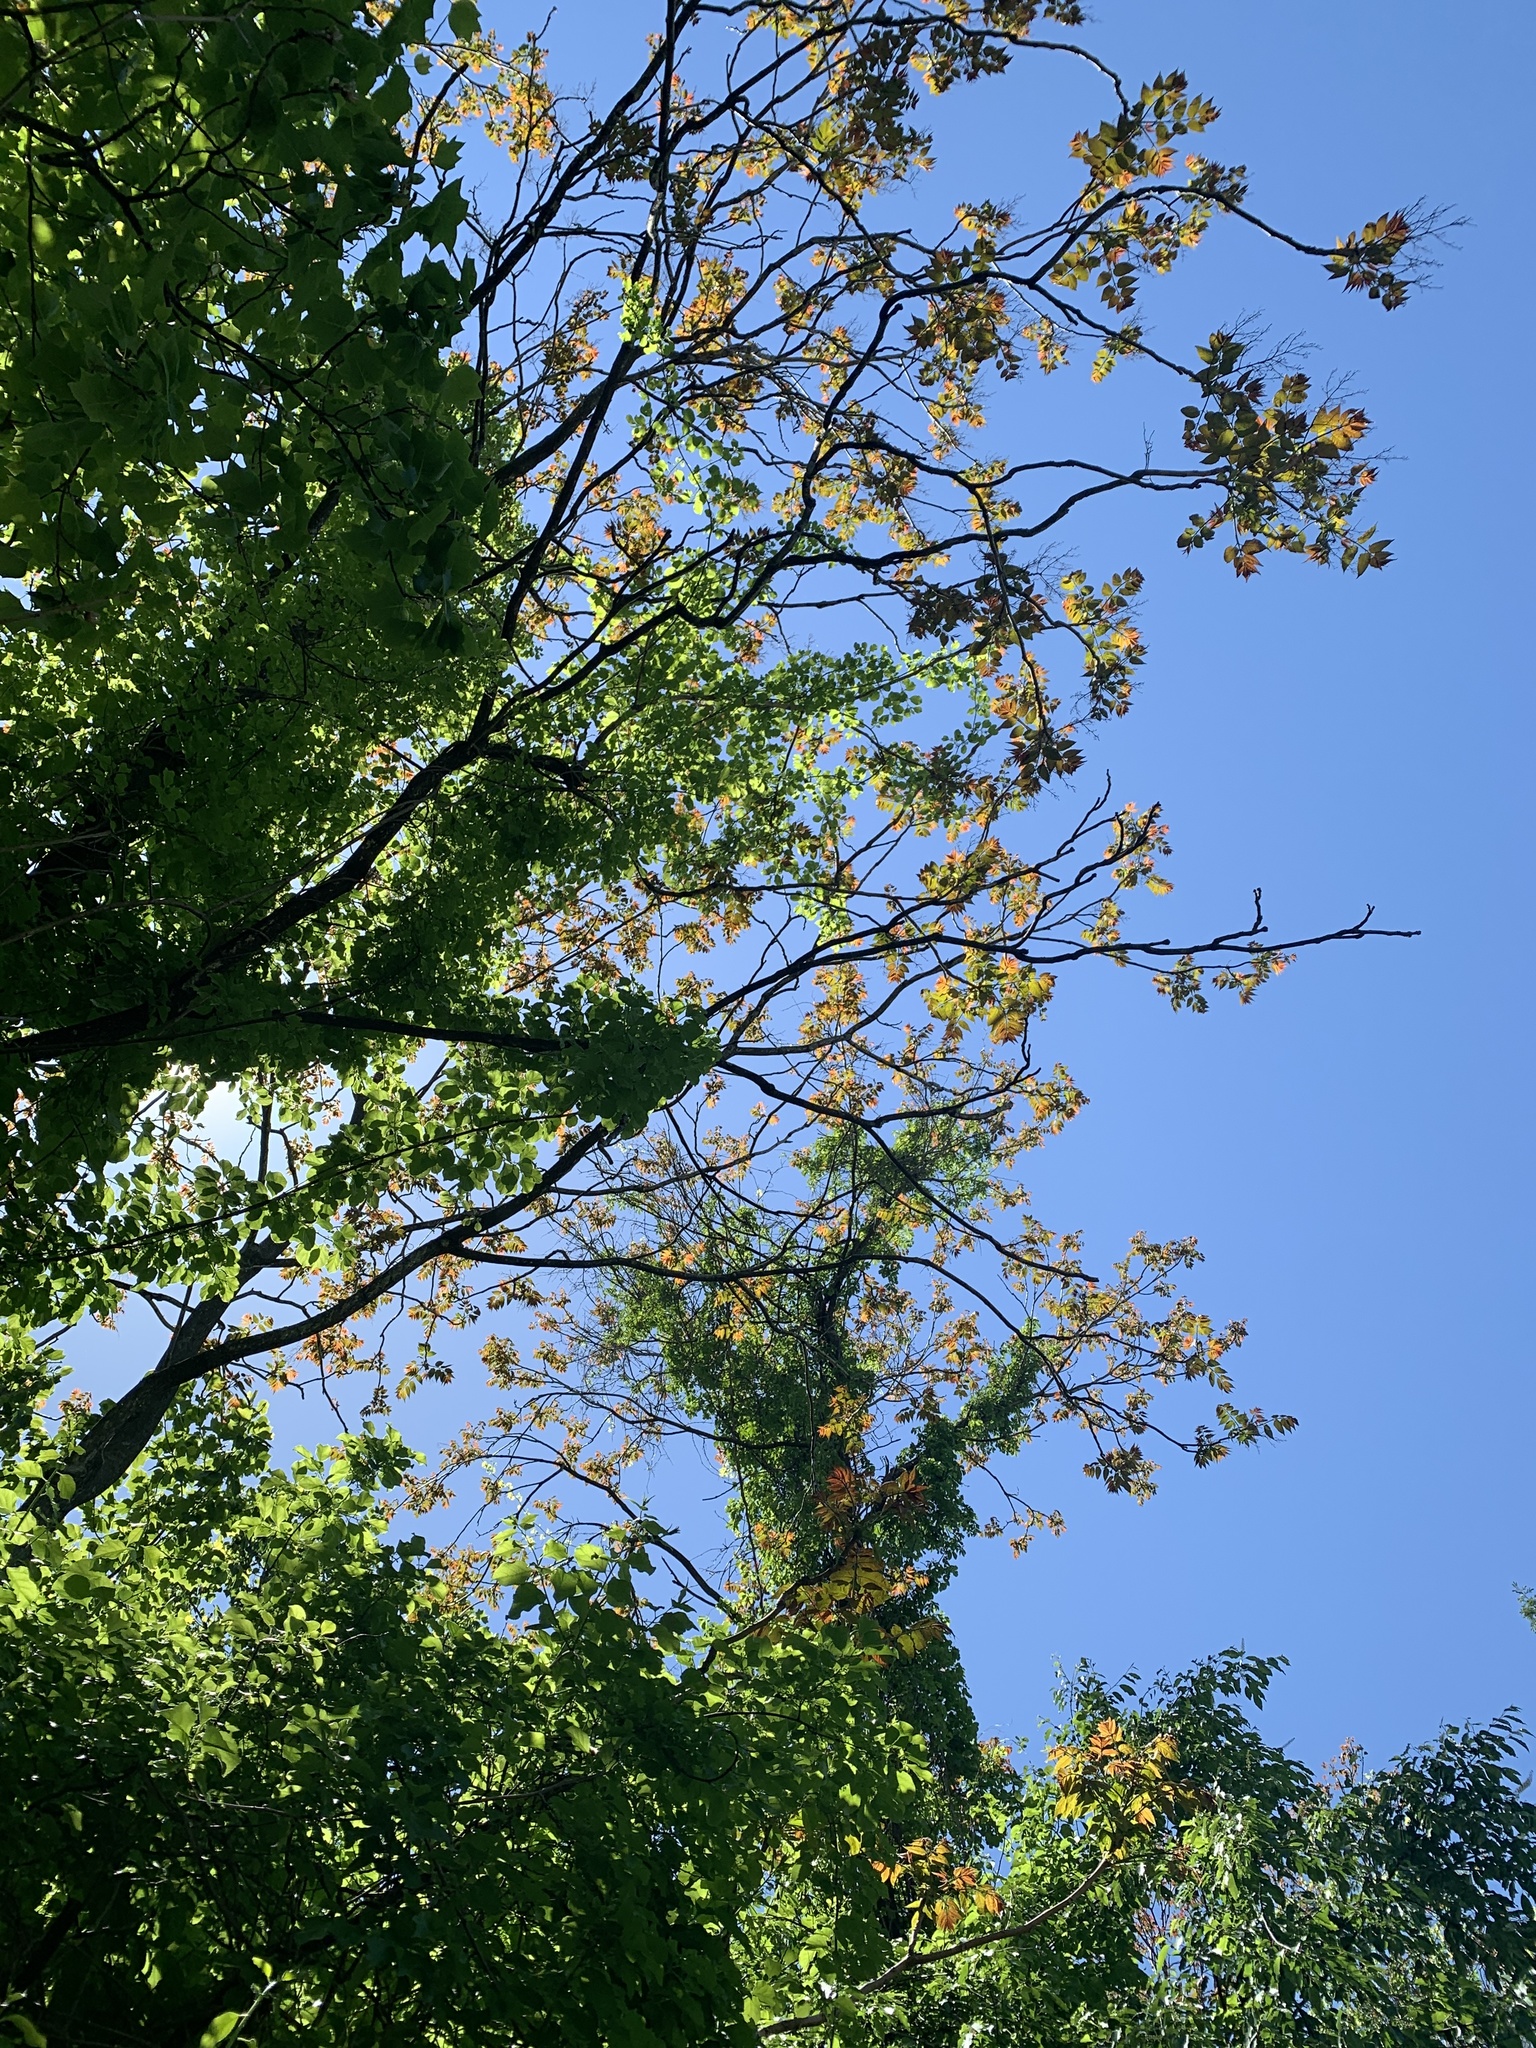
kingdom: Plantae
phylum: Tracheophyta
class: Magnoliopsida
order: Sapindales
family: Simaroubaceae
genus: Ailanthus
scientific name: Ailanthus altissima
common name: Tree-of-heaven
